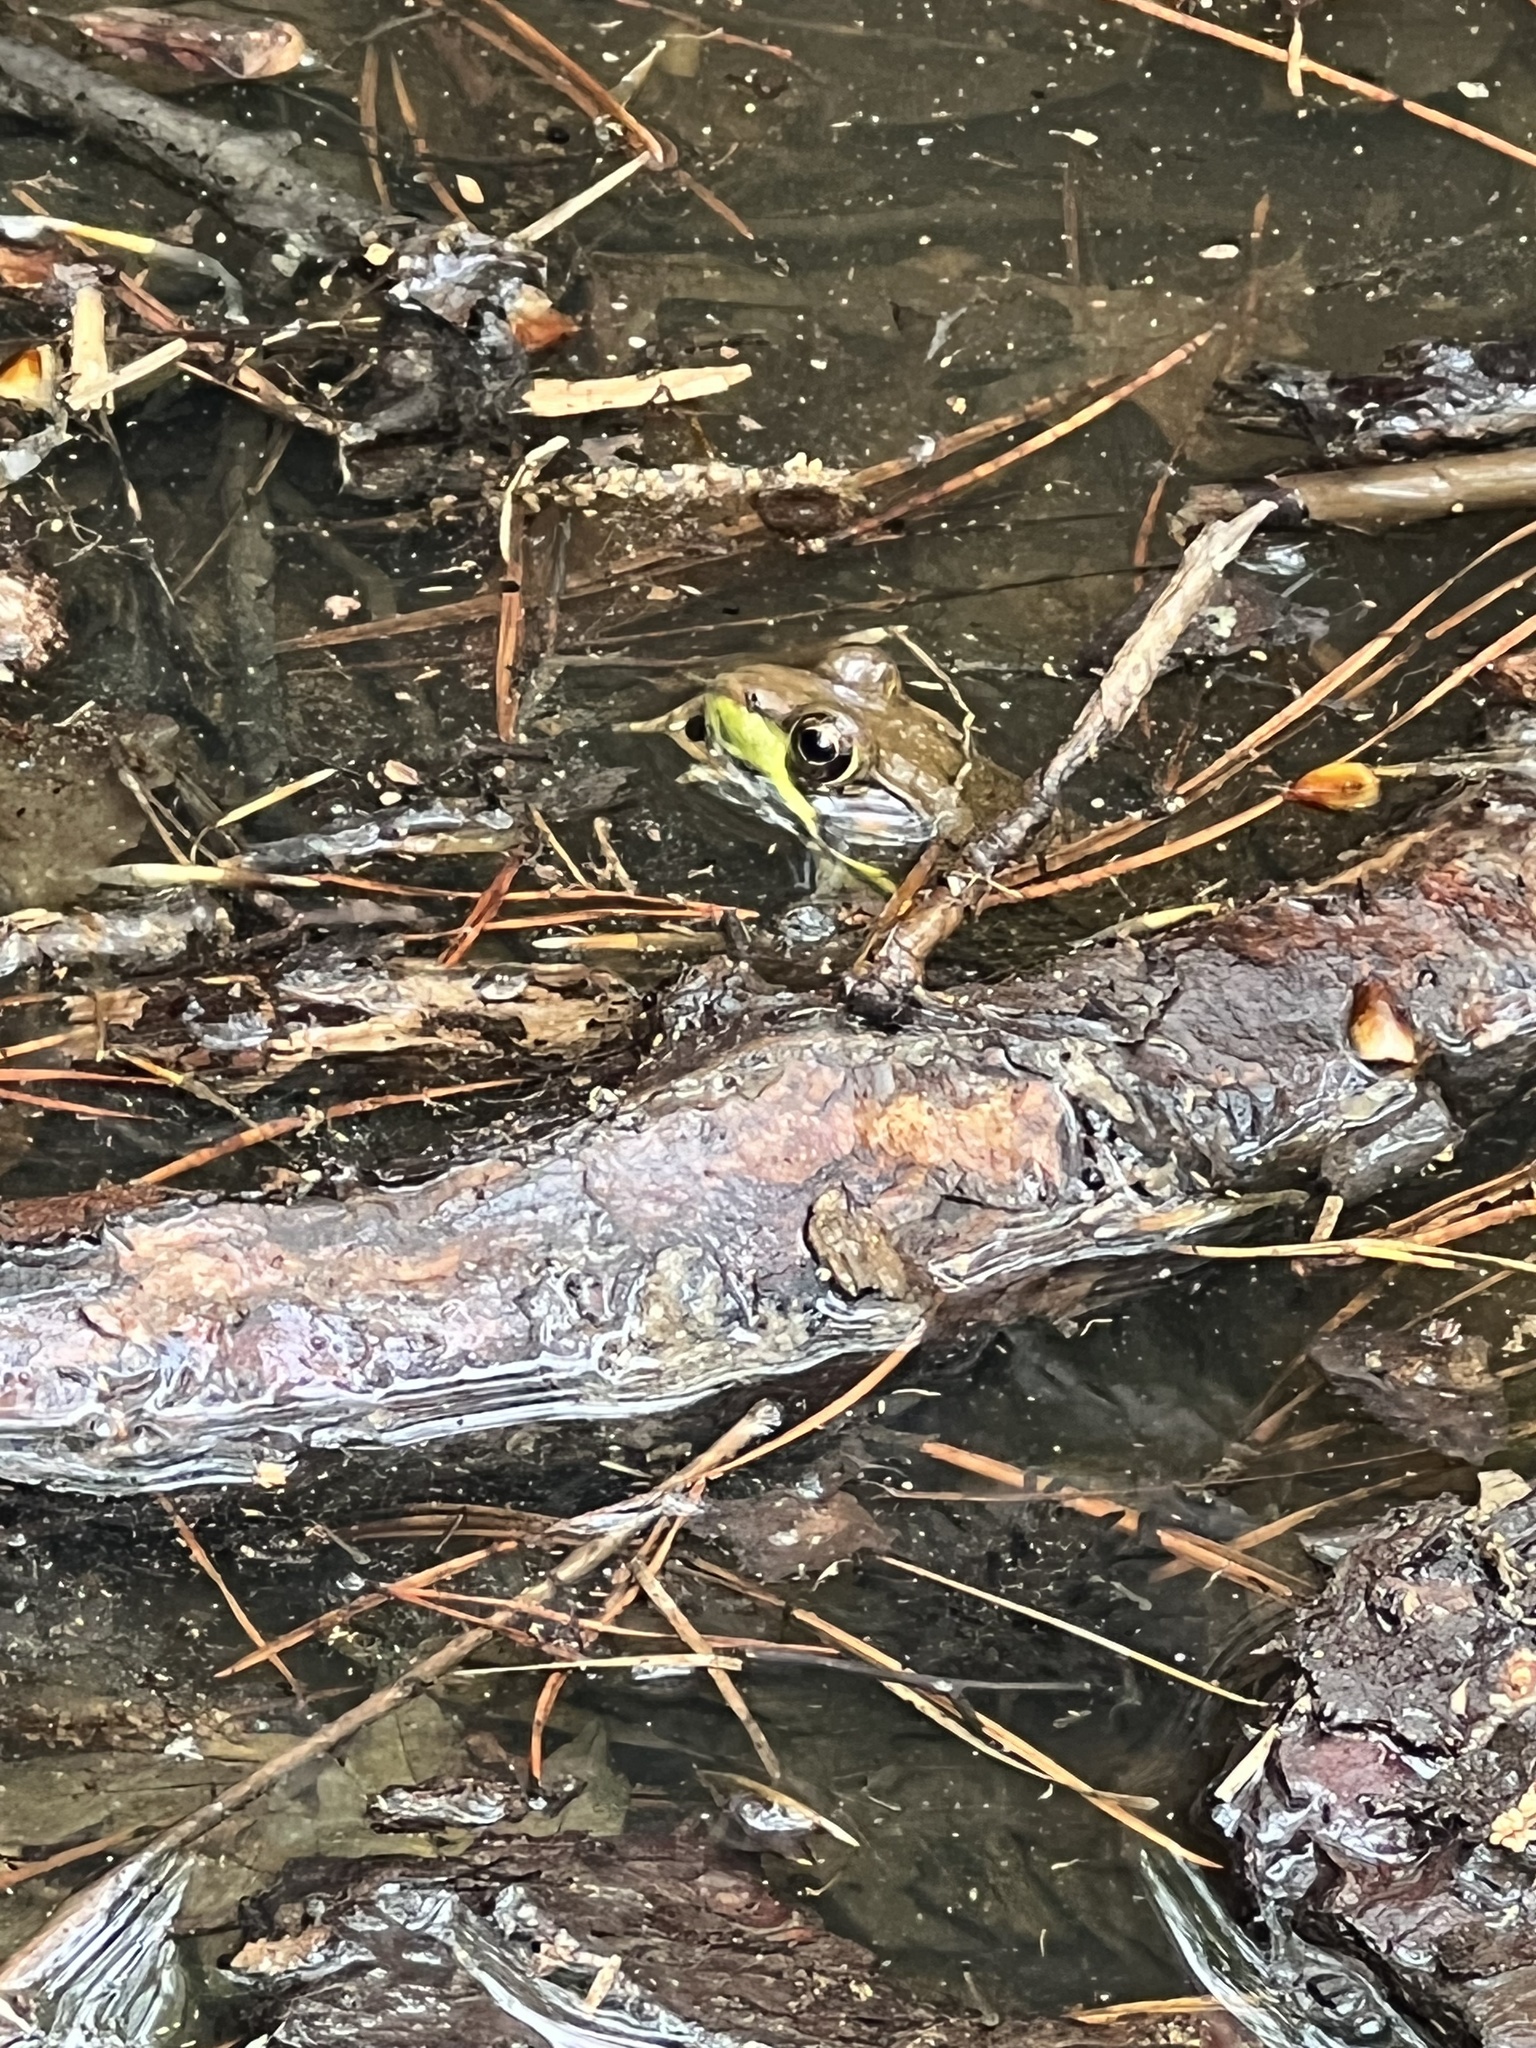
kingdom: Animalia
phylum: Chordata
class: Amphibia
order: Anura
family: Ranidae
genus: Lithobates
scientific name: Lithobates clamitans
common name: Green frog
